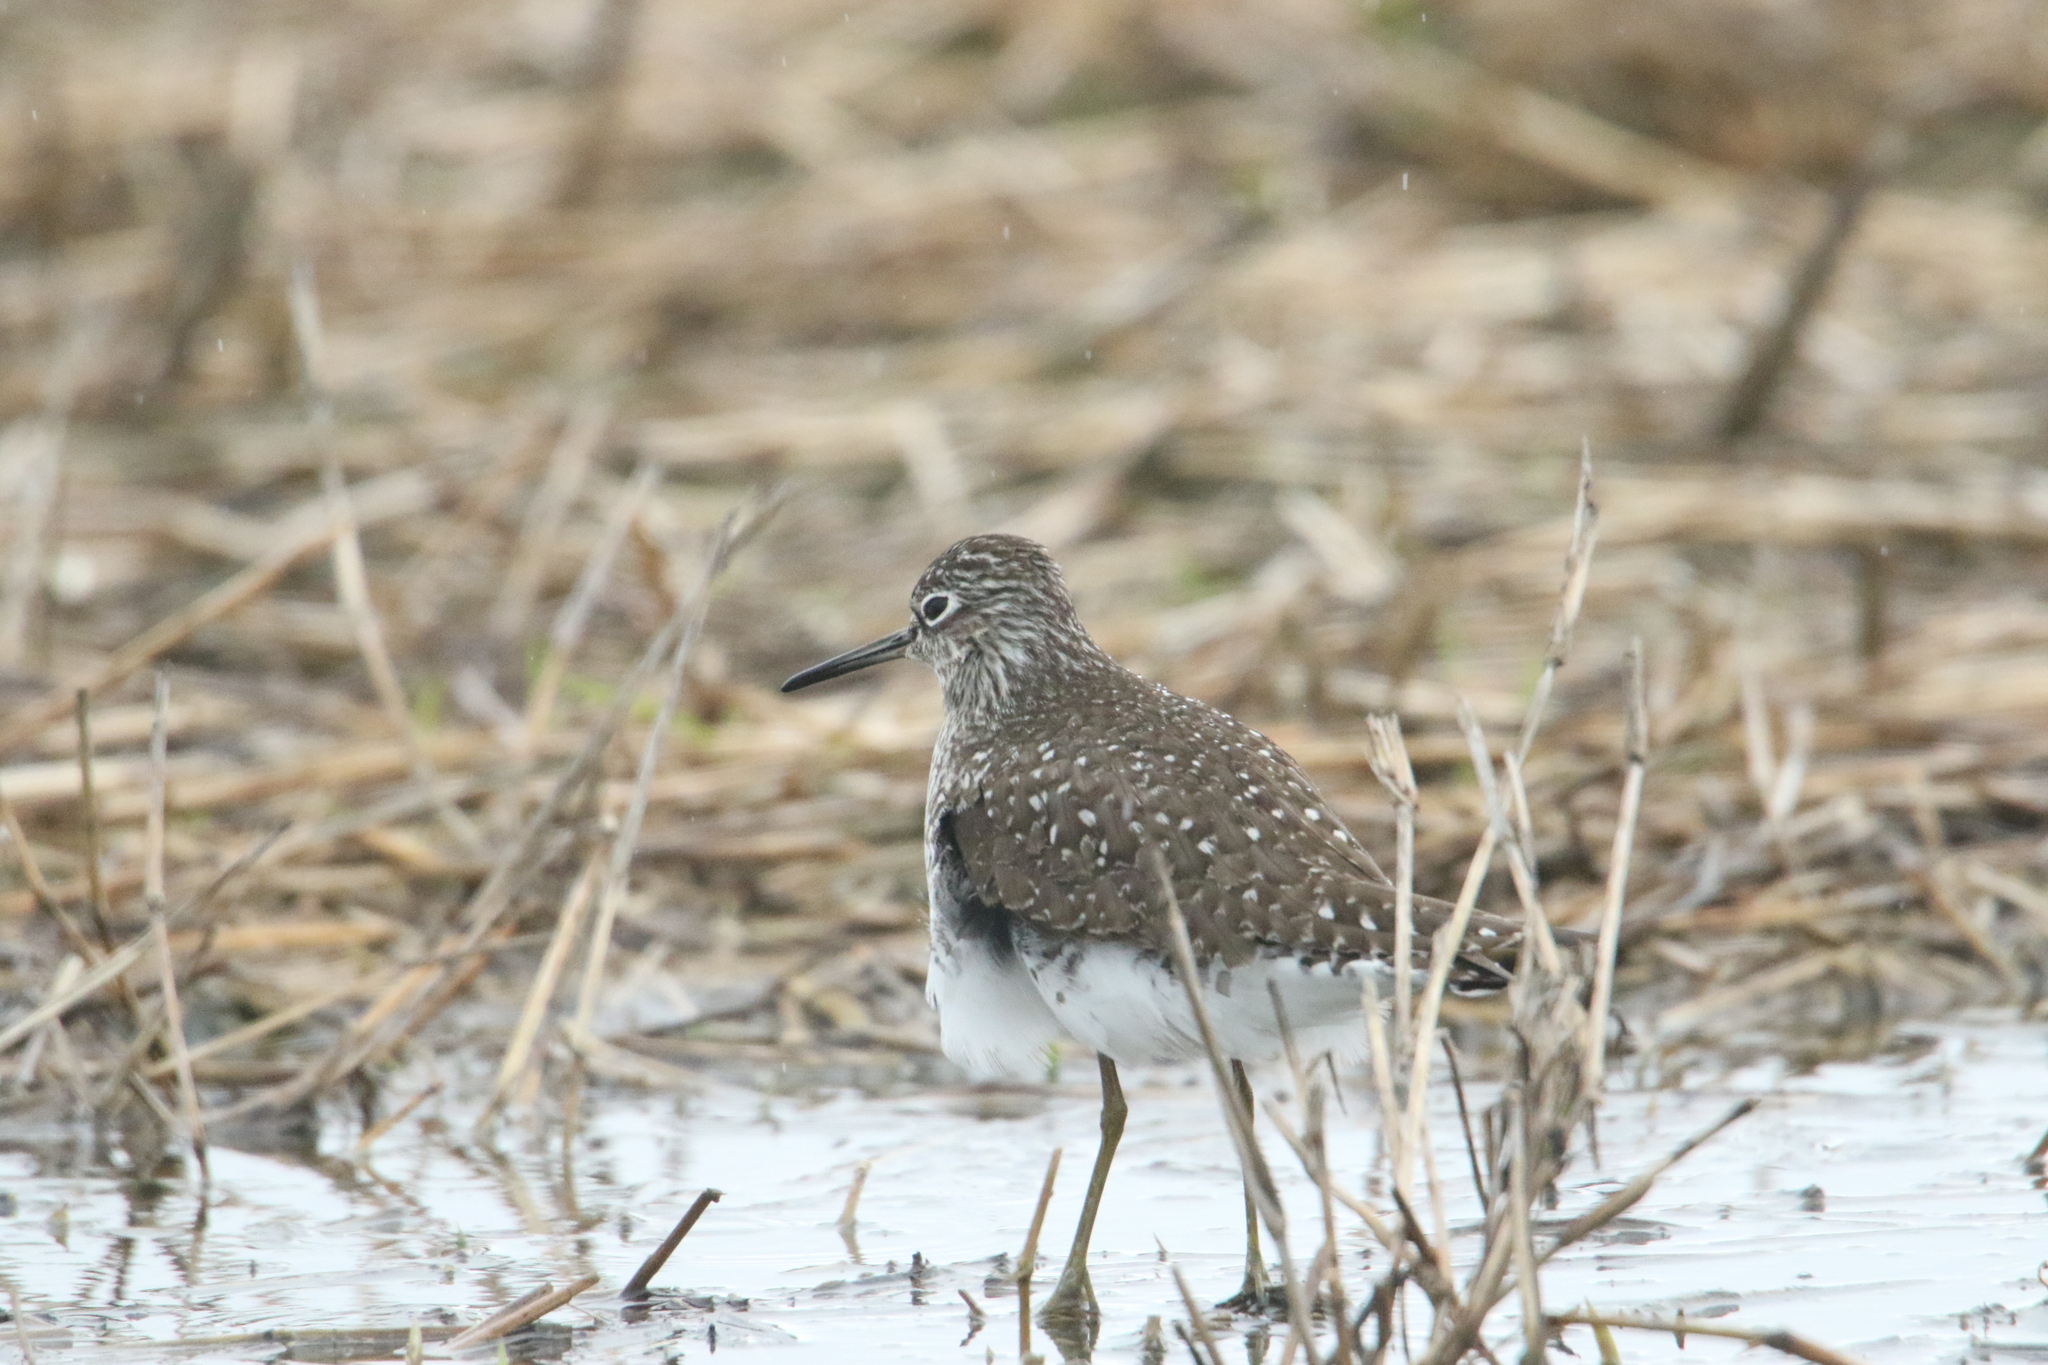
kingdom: Animalia
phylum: Chordata
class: Aves
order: Charadriiformes
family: Scolopacidae
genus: Tringa
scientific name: Tringa solitaria
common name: Solitary sandpiper
